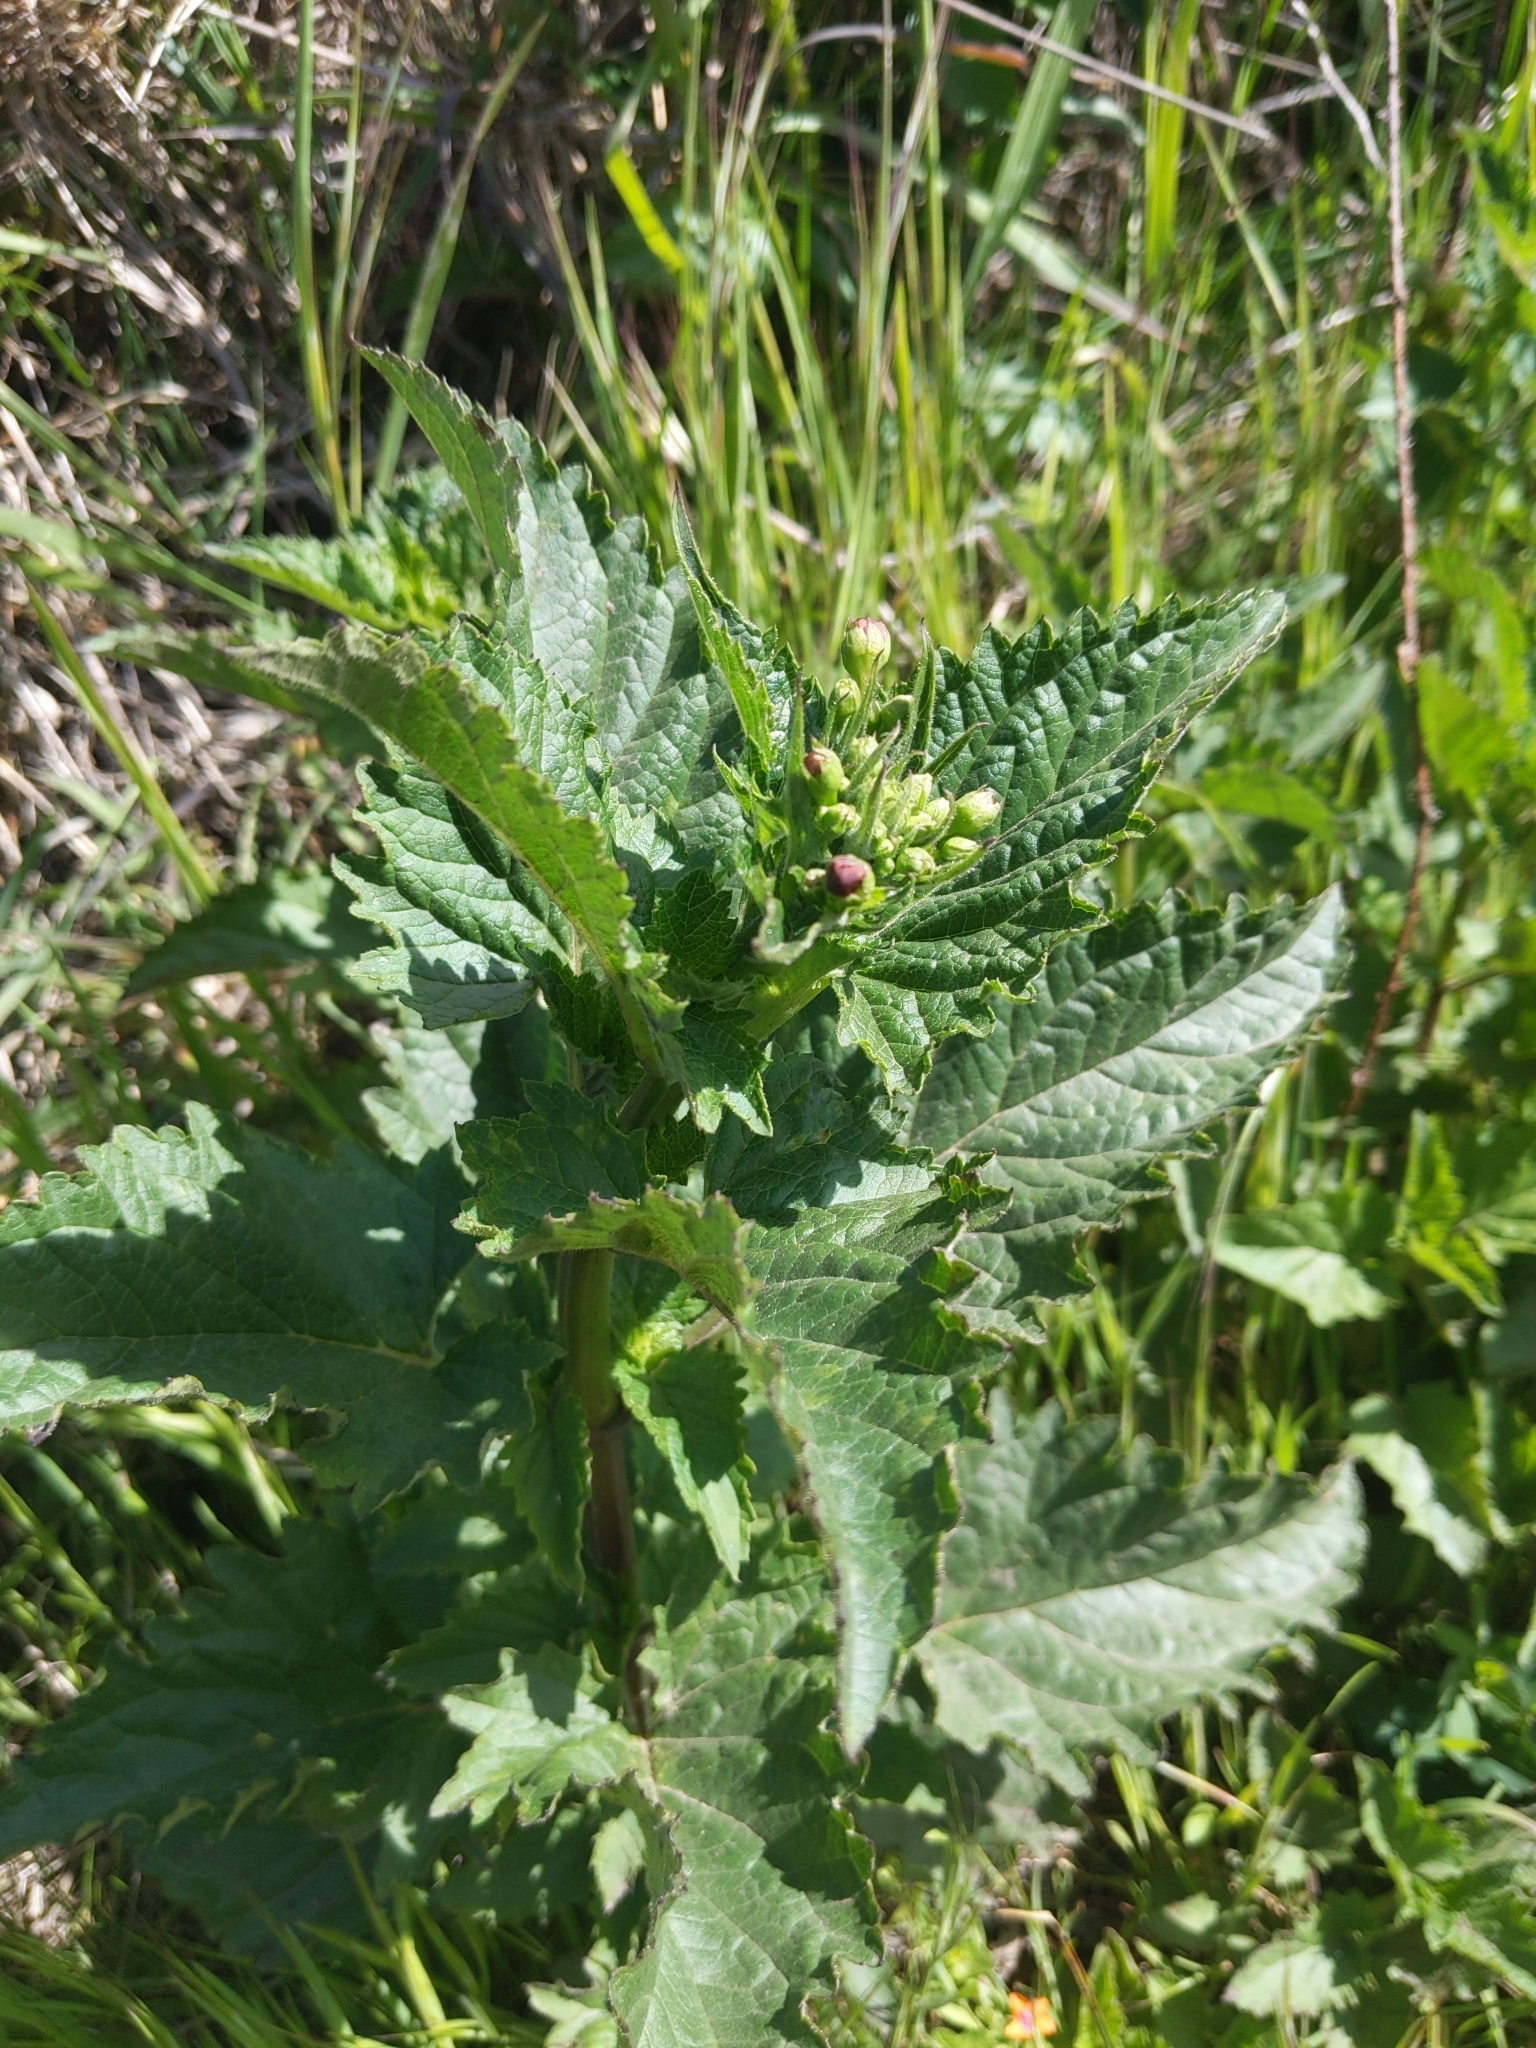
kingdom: Plantae
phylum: Tracheophyta
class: Magnoliopsida
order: Lamiales
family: Scrophulariaceae
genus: Scrophularia
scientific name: Scrophularia californica
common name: California figwort
